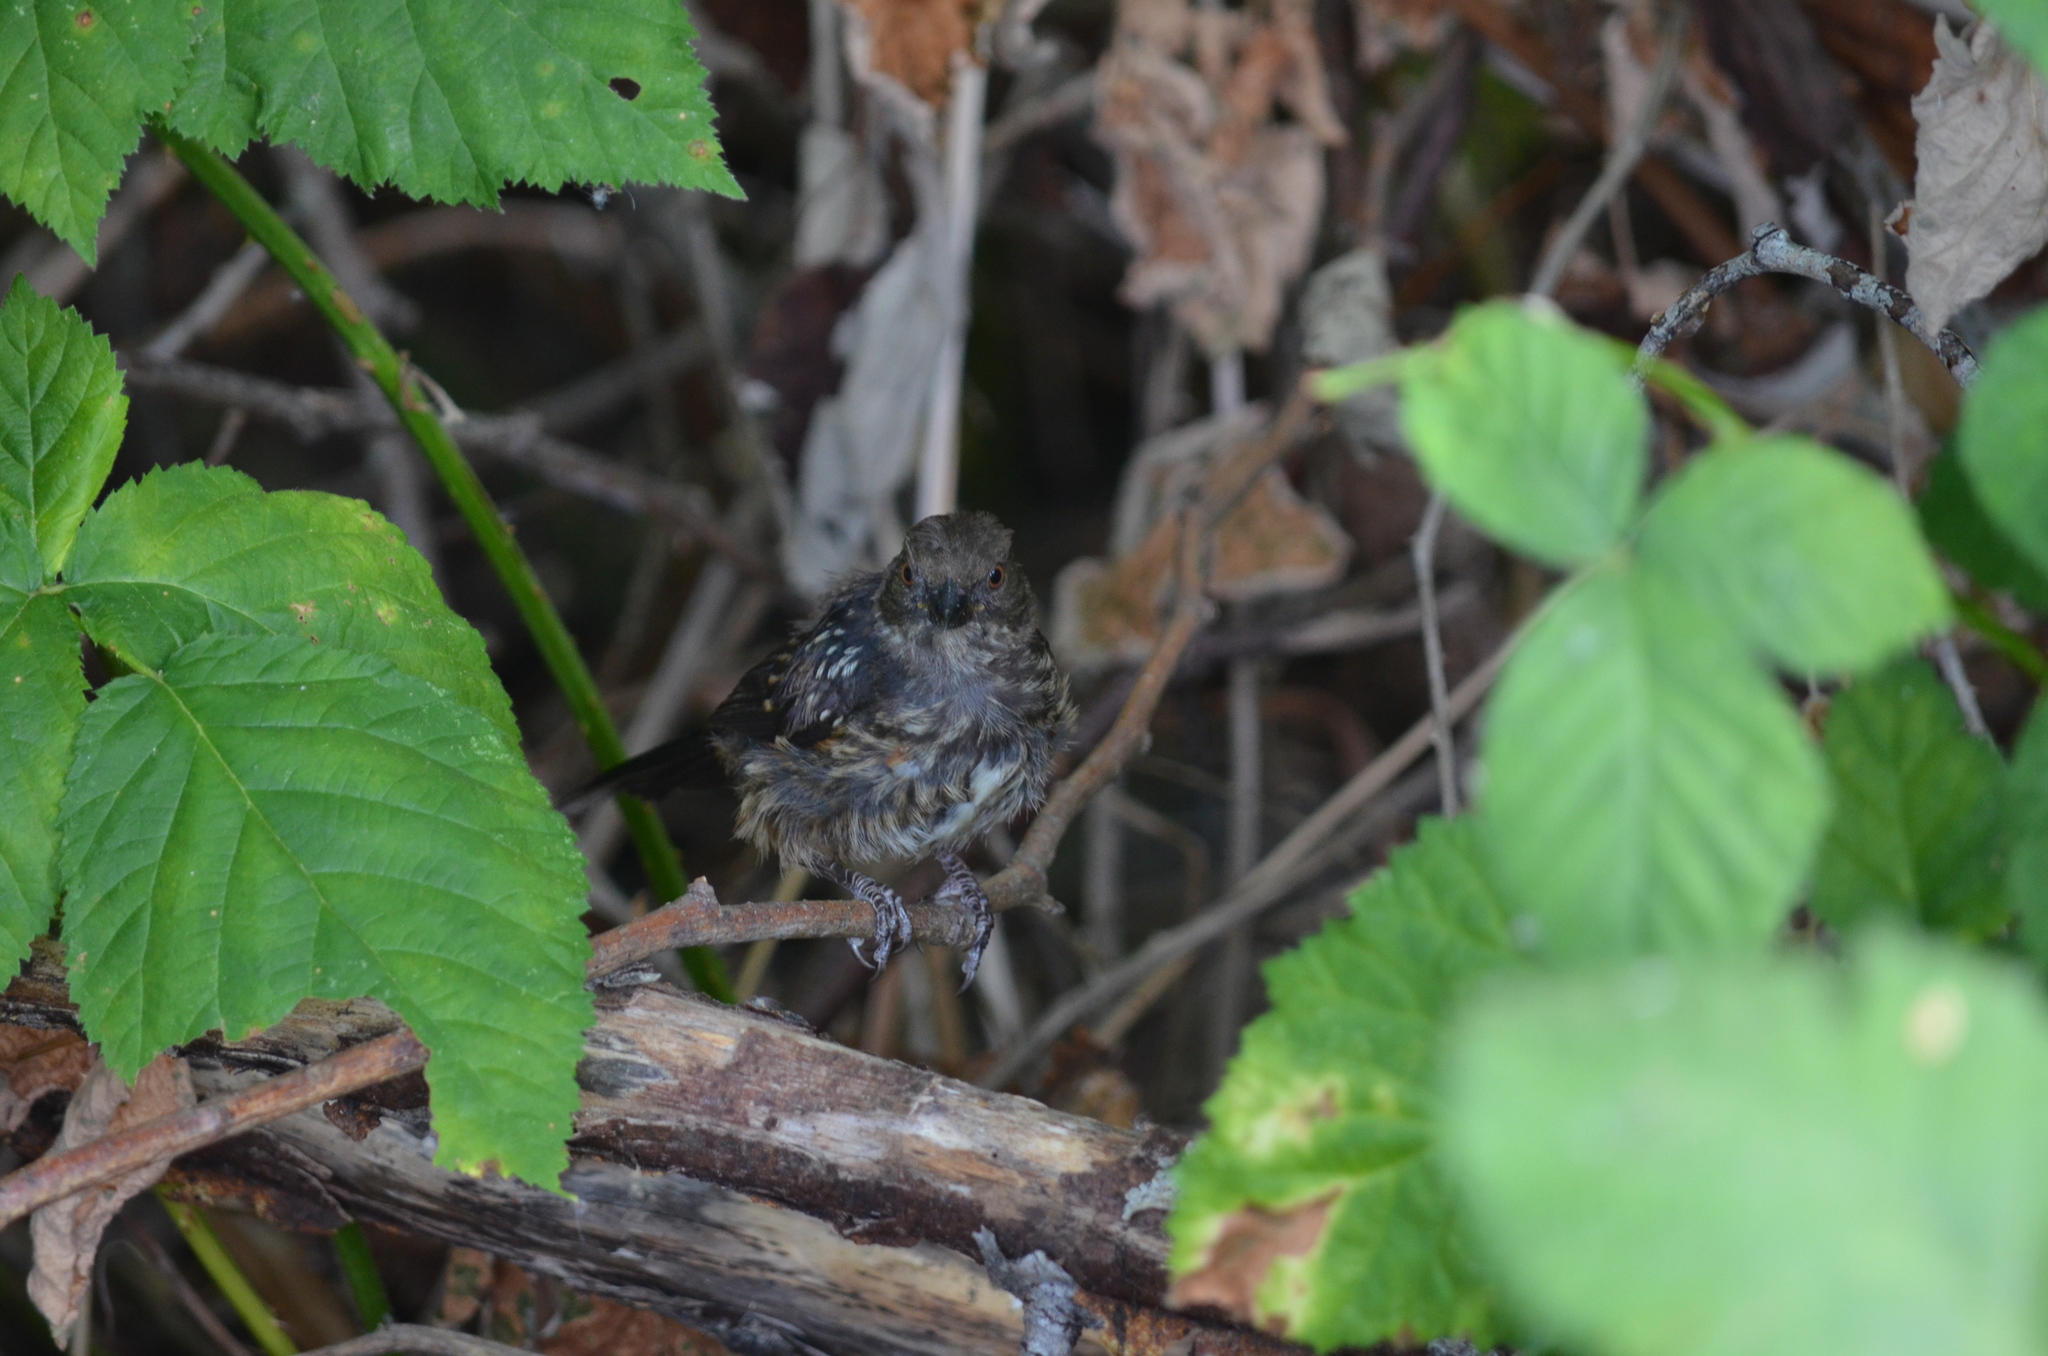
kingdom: Animalia
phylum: Chordata
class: Aves
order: Passeriformes
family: Passerellidae
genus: Pipilo
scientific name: Pipilo maculatus
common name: Spotted towhee
